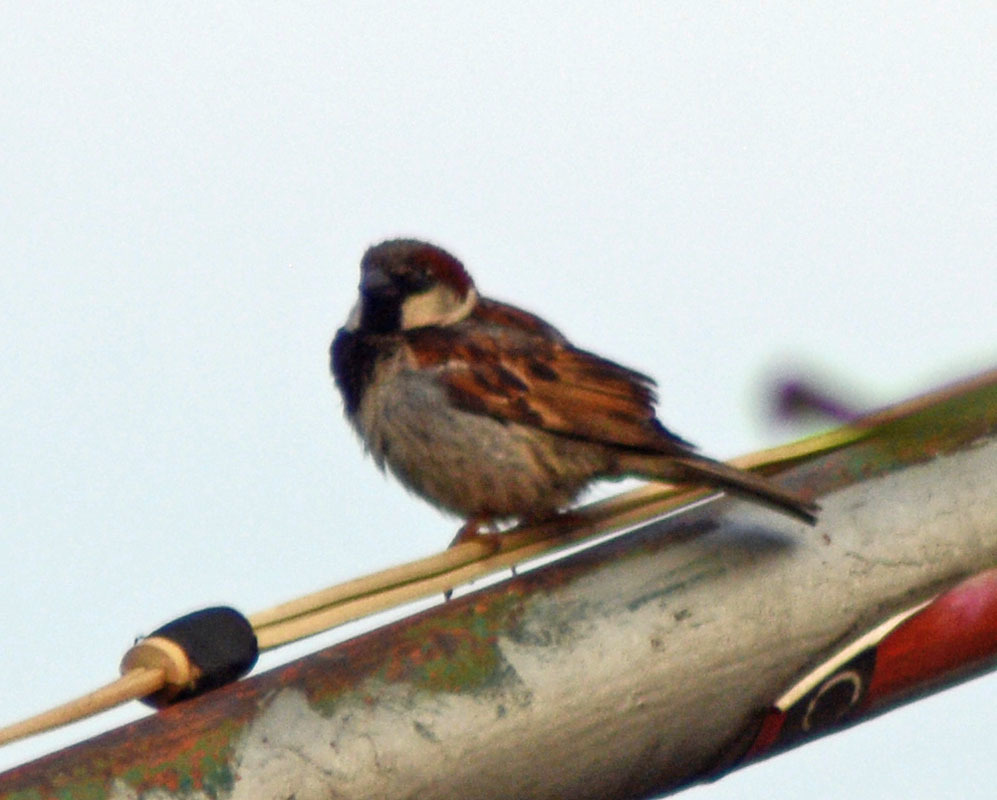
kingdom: Animalia
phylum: Chordata
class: Aves
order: Passeriformes
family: Passeridae
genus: Passer
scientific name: Passer domesticus
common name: House sparrow
